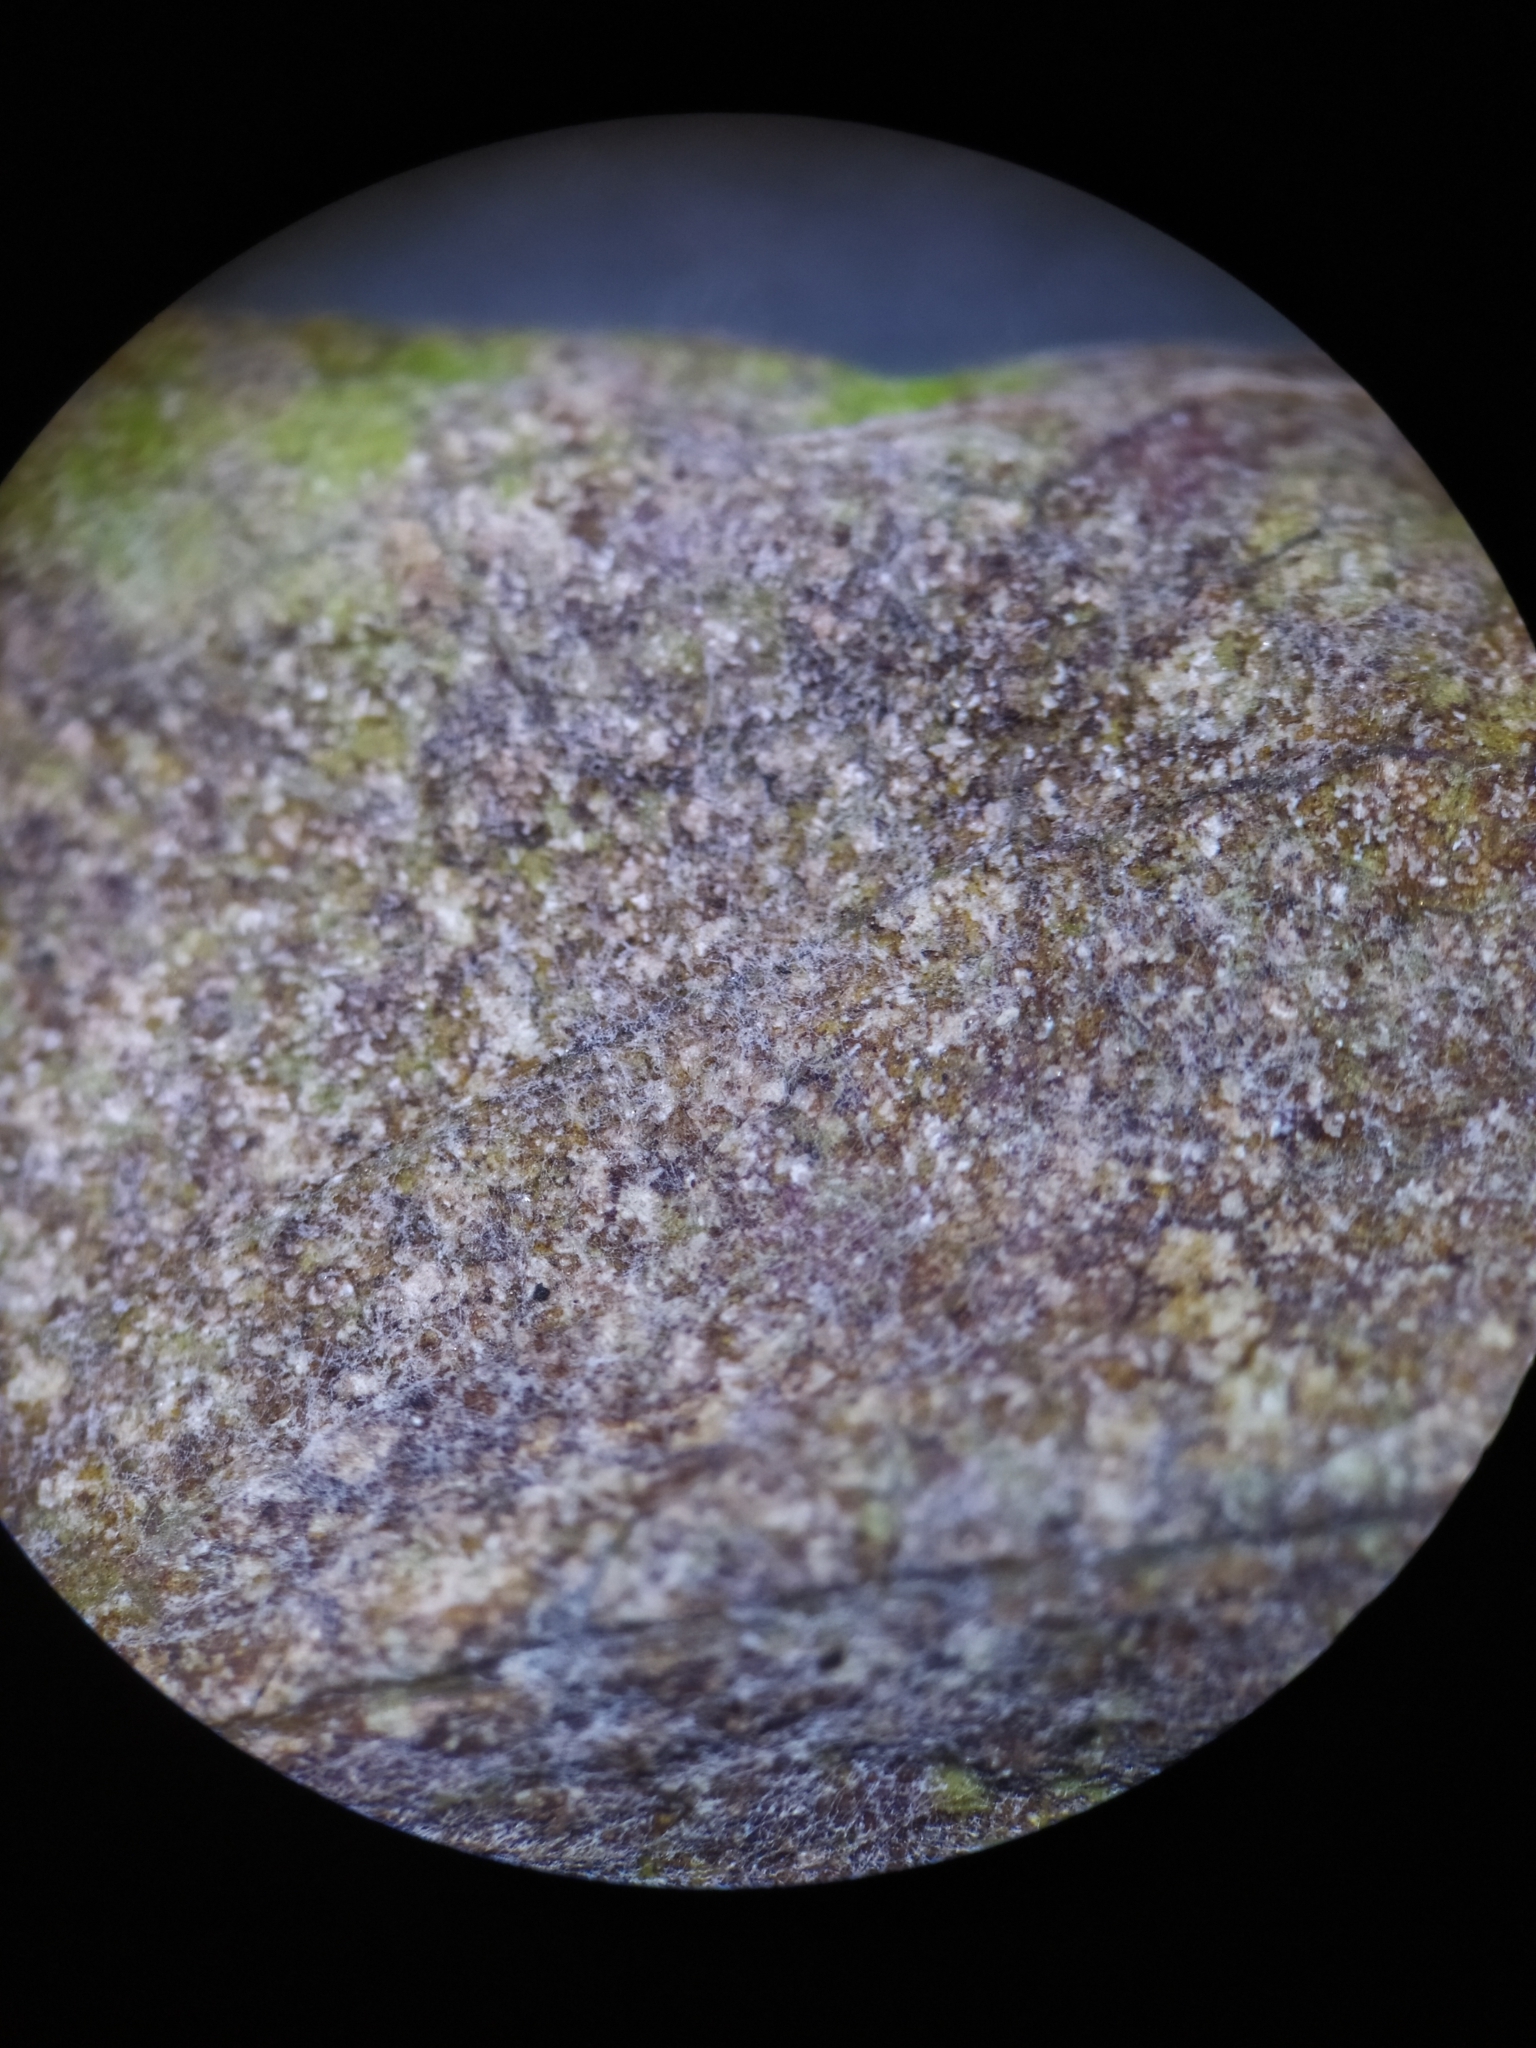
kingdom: Fungi
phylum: Ascomycota
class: Leotiomycetes
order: Helotiales
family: Erysiphaceae
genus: Golovinomyces
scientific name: Golovinomyces asterum
